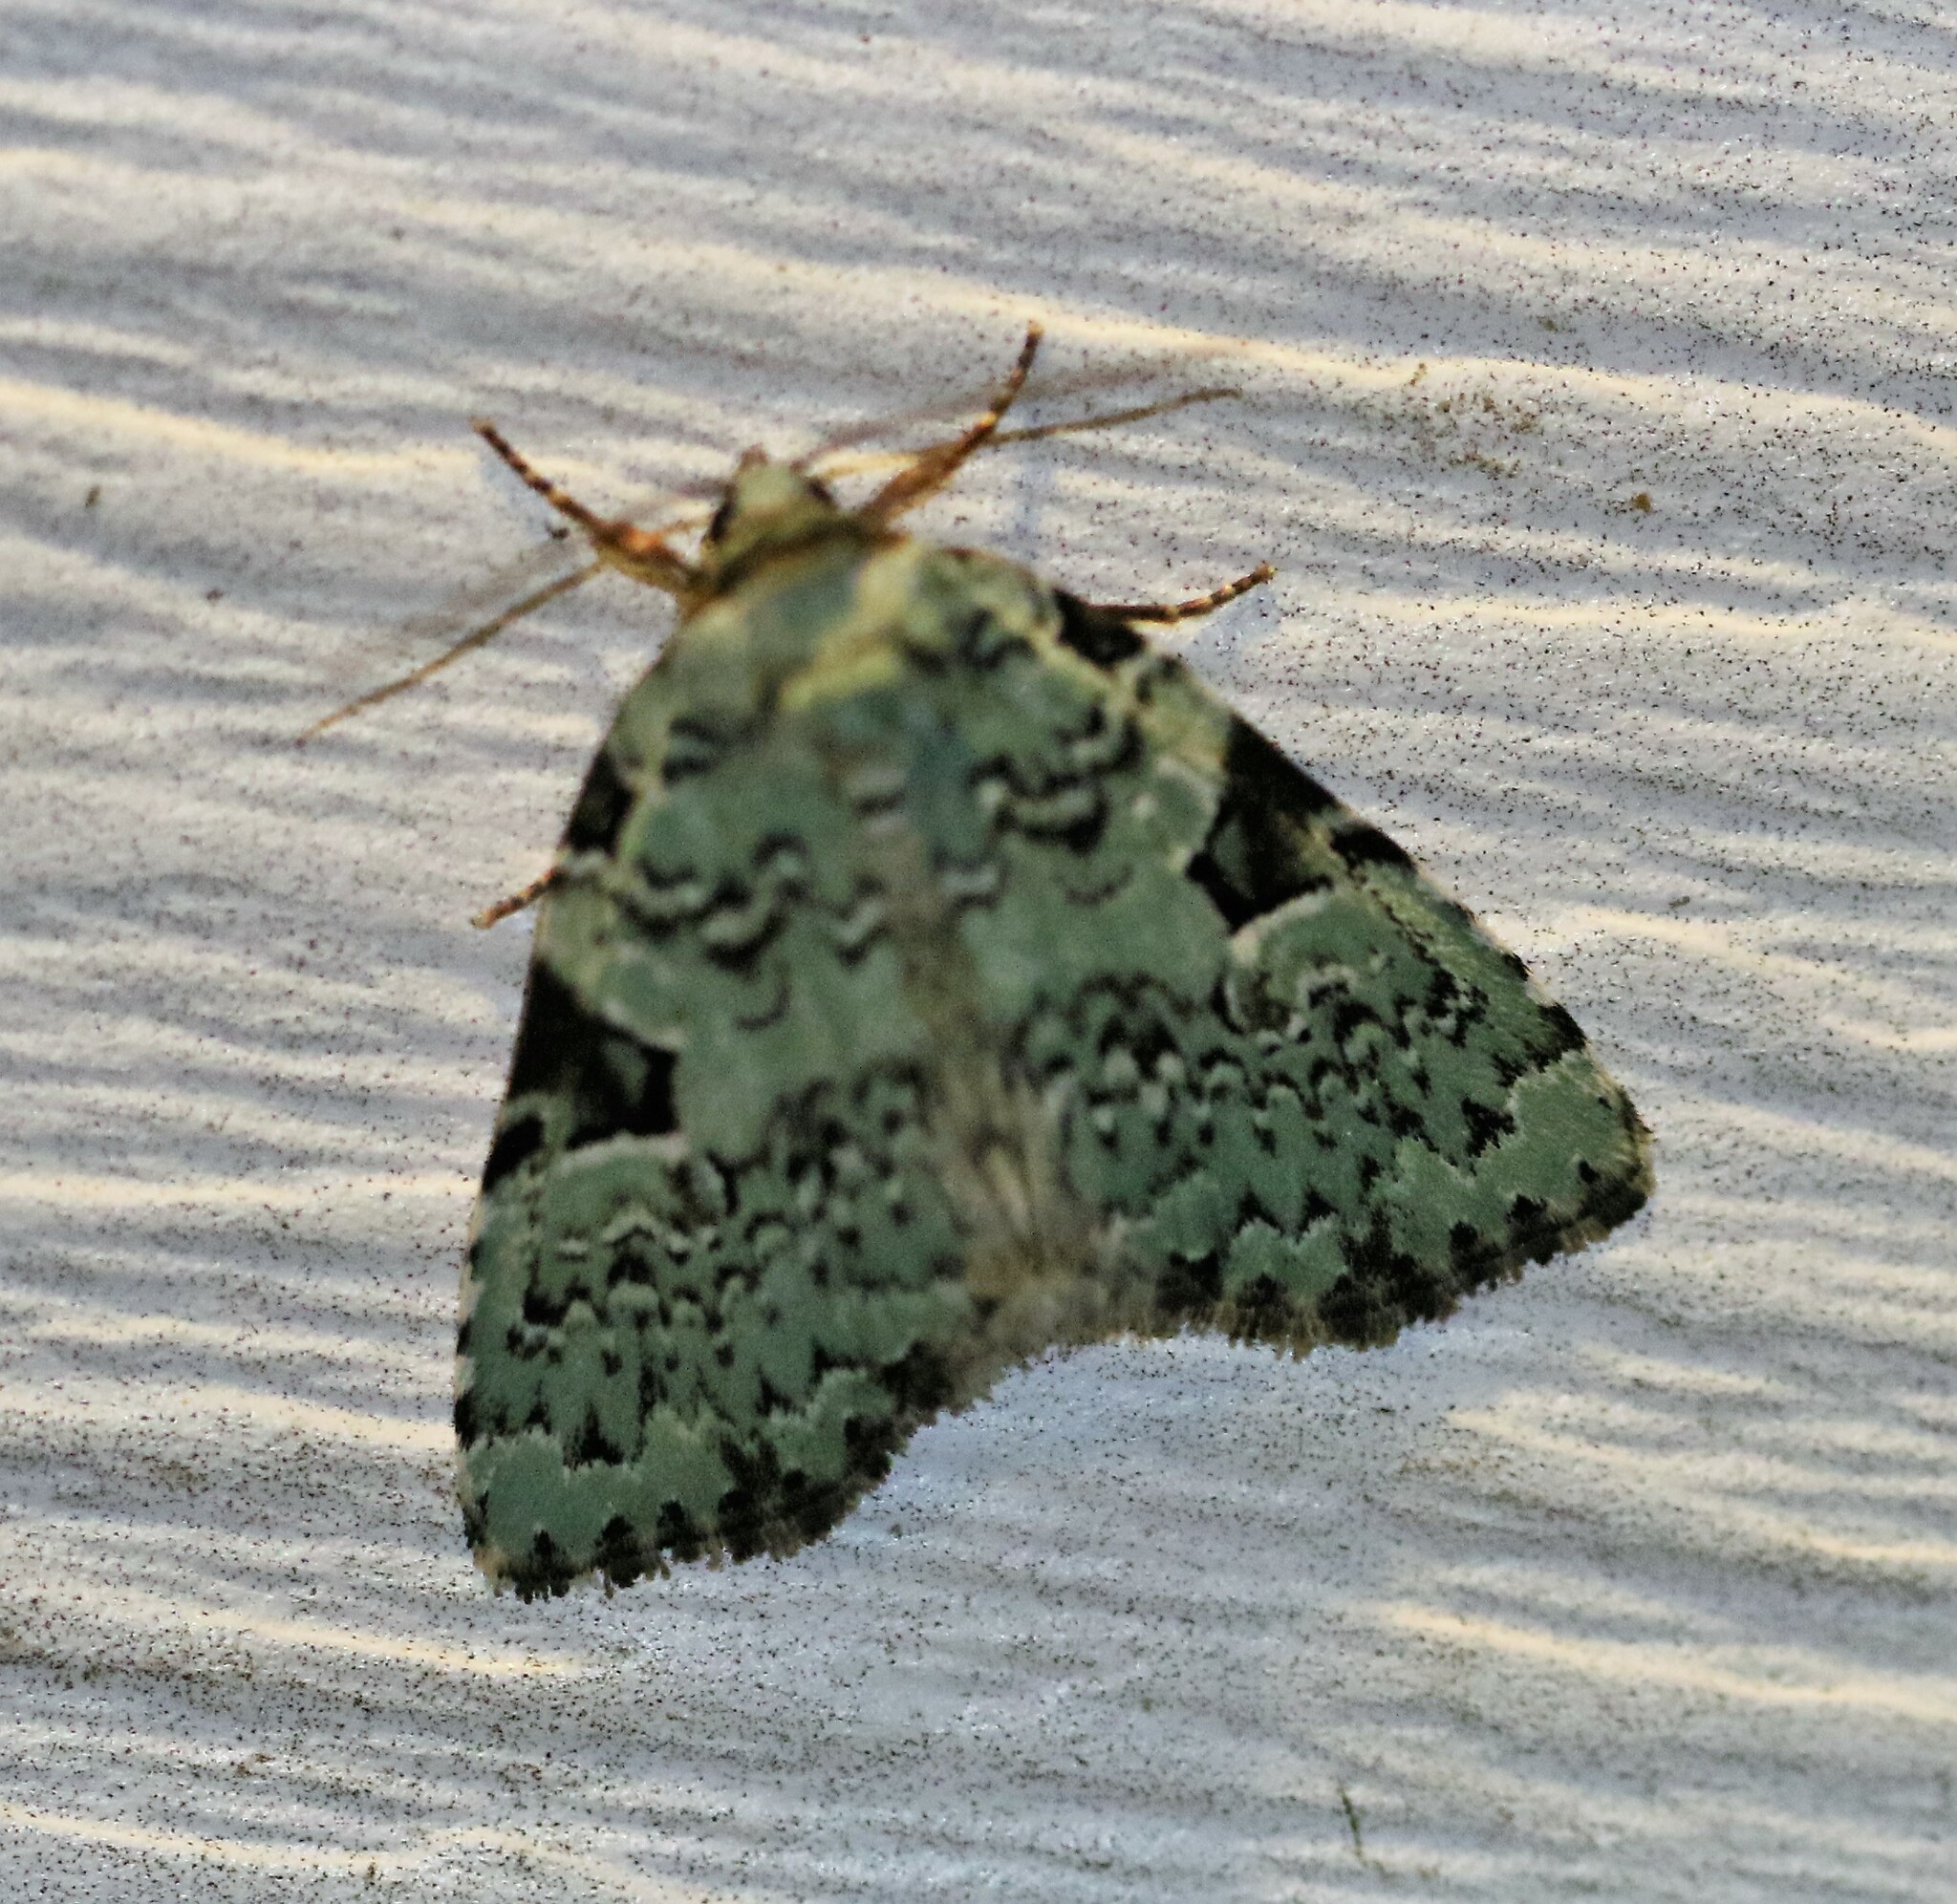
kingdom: Animalia
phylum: Arthropoda
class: Insecta
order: Lepidoptera
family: Noctuidae
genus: Leuconycta
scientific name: Leuconycta diphteroides
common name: Green leuconycta moth
